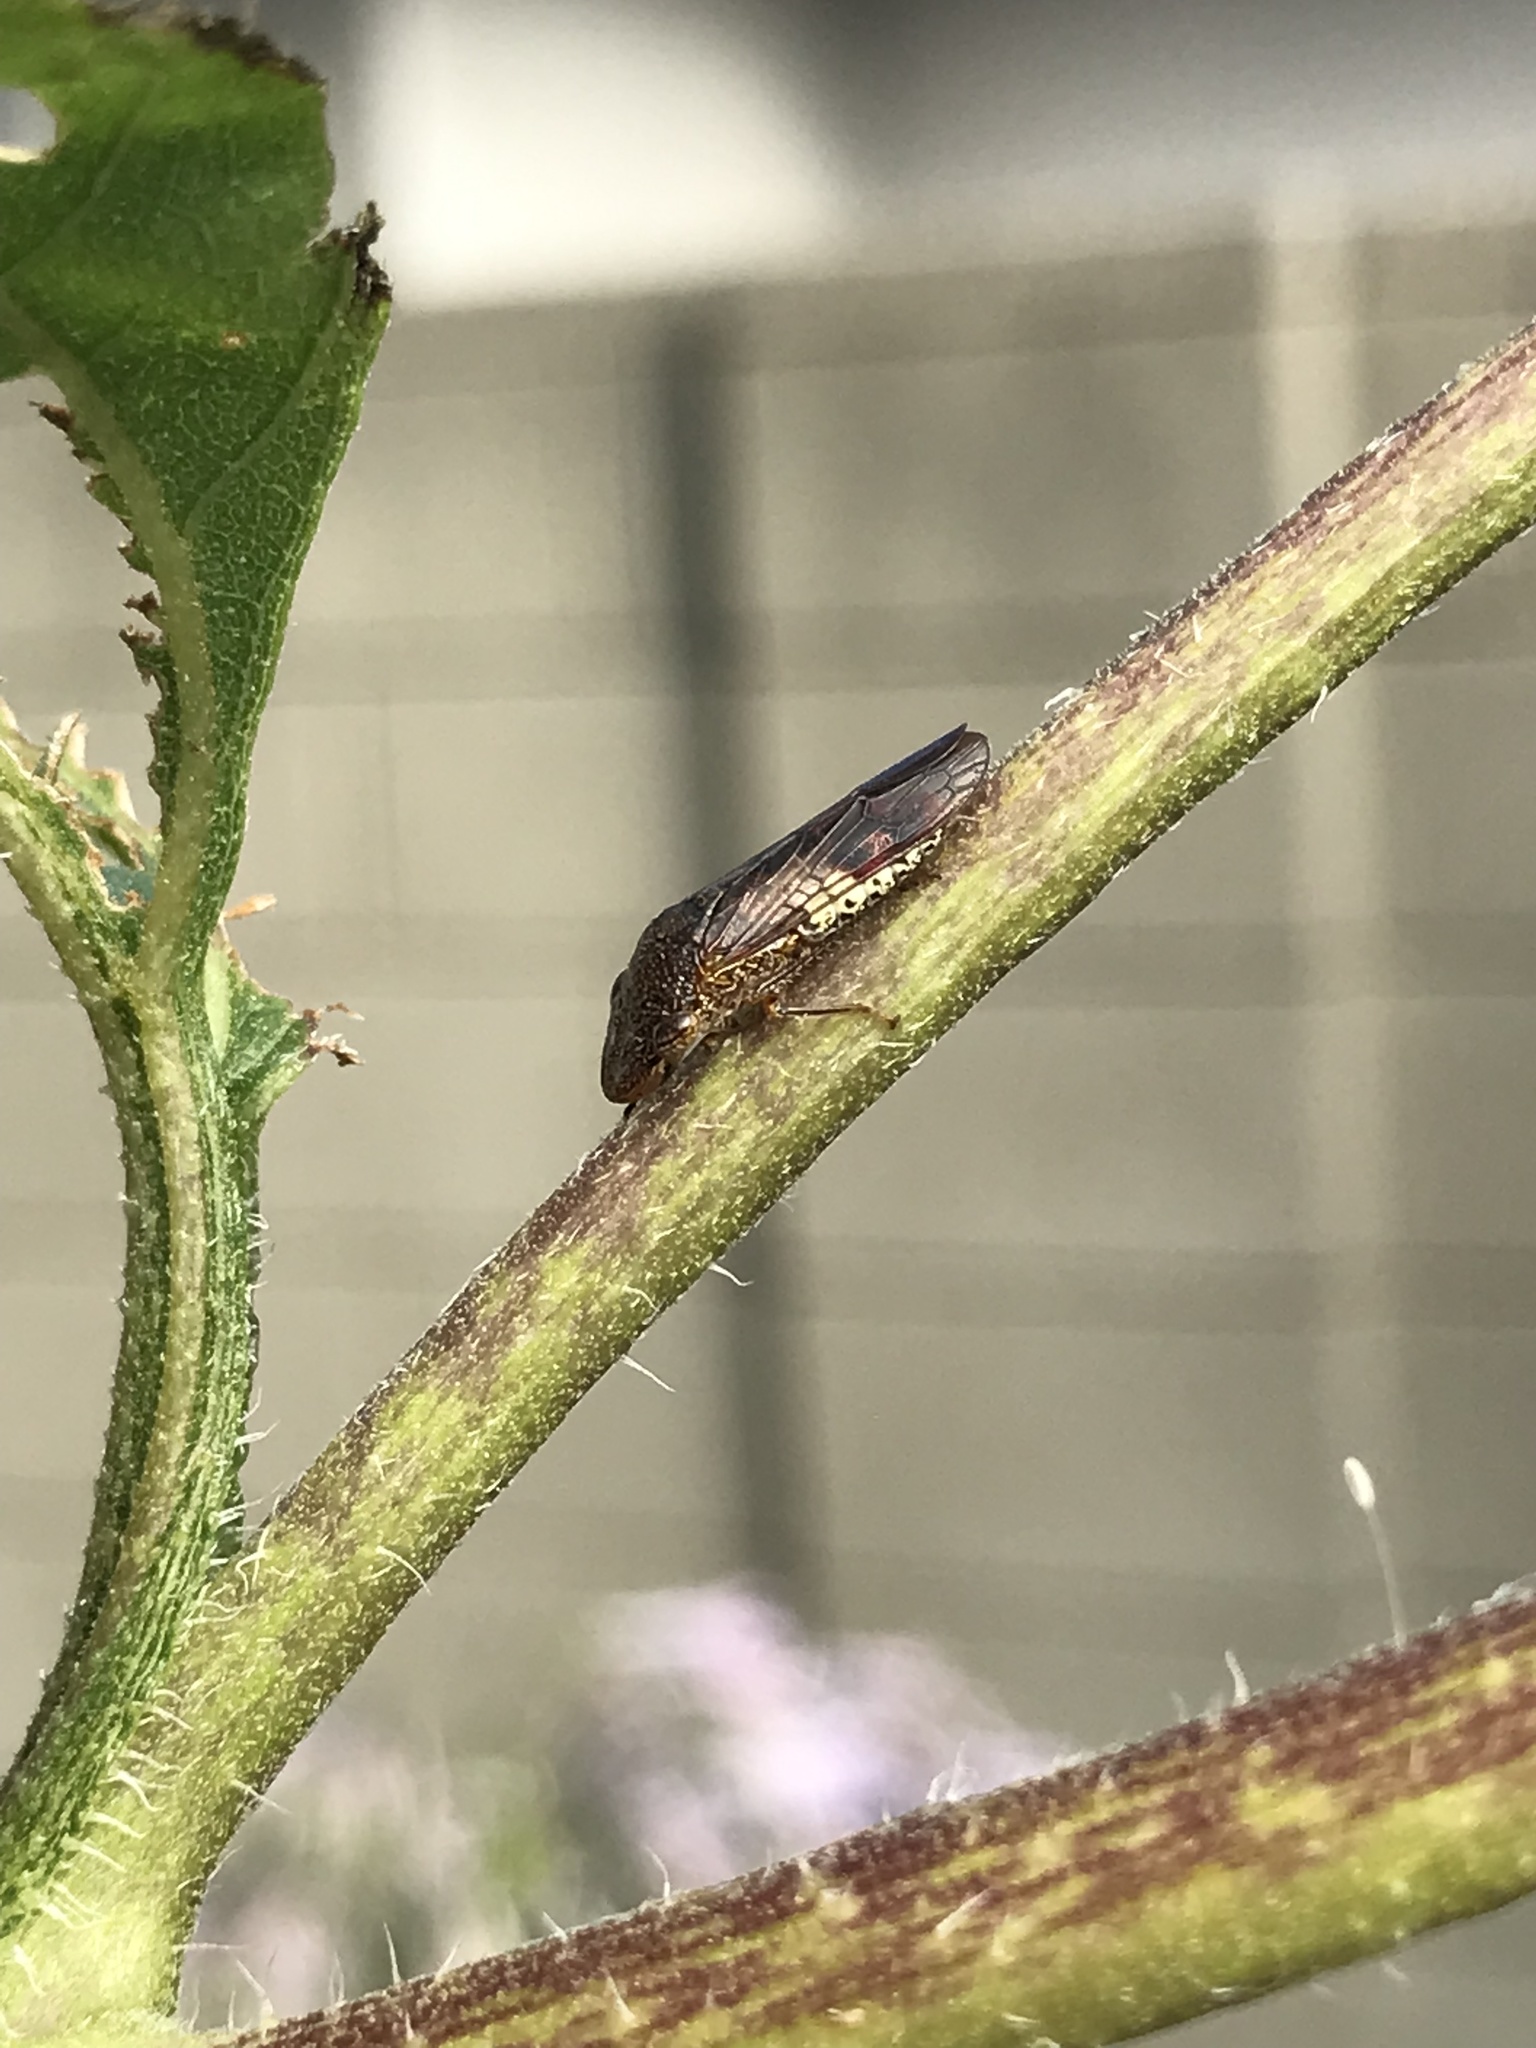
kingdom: Animalia
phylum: Arthropoda
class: Insecta
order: Hemiptera
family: Cicadellidae
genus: Homalodisca
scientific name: Homalodisca vitripennis
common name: Glassy-winged sharpshooter
